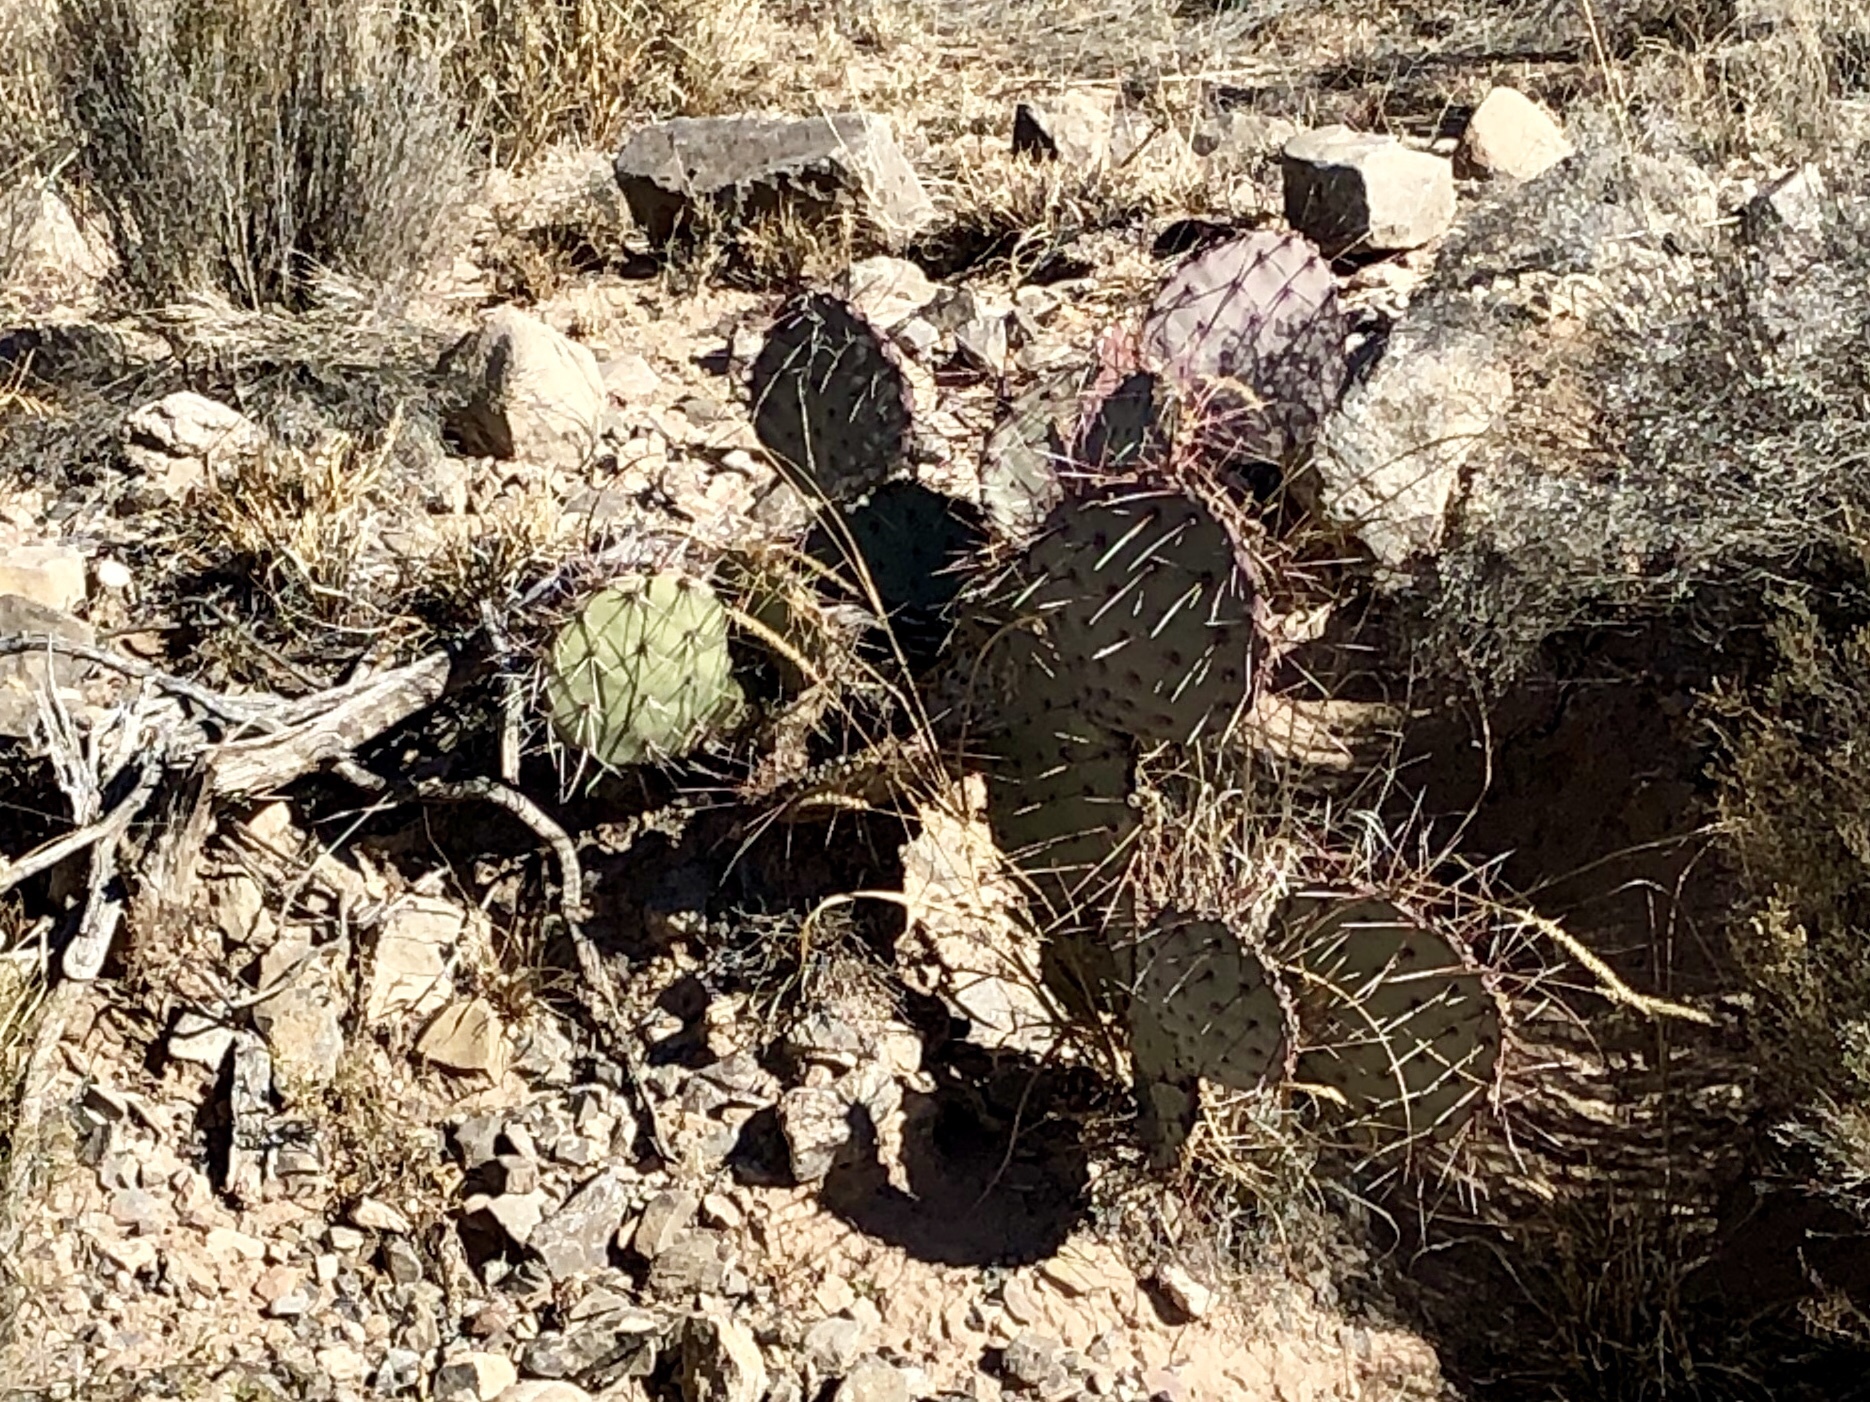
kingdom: Plantae
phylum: Tracheophyta
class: Magnoliopsida
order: Caryophyllales
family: Cactaceae
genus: Opuntia
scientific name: Opuntia macrocentra
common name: Purple prickly-pear
